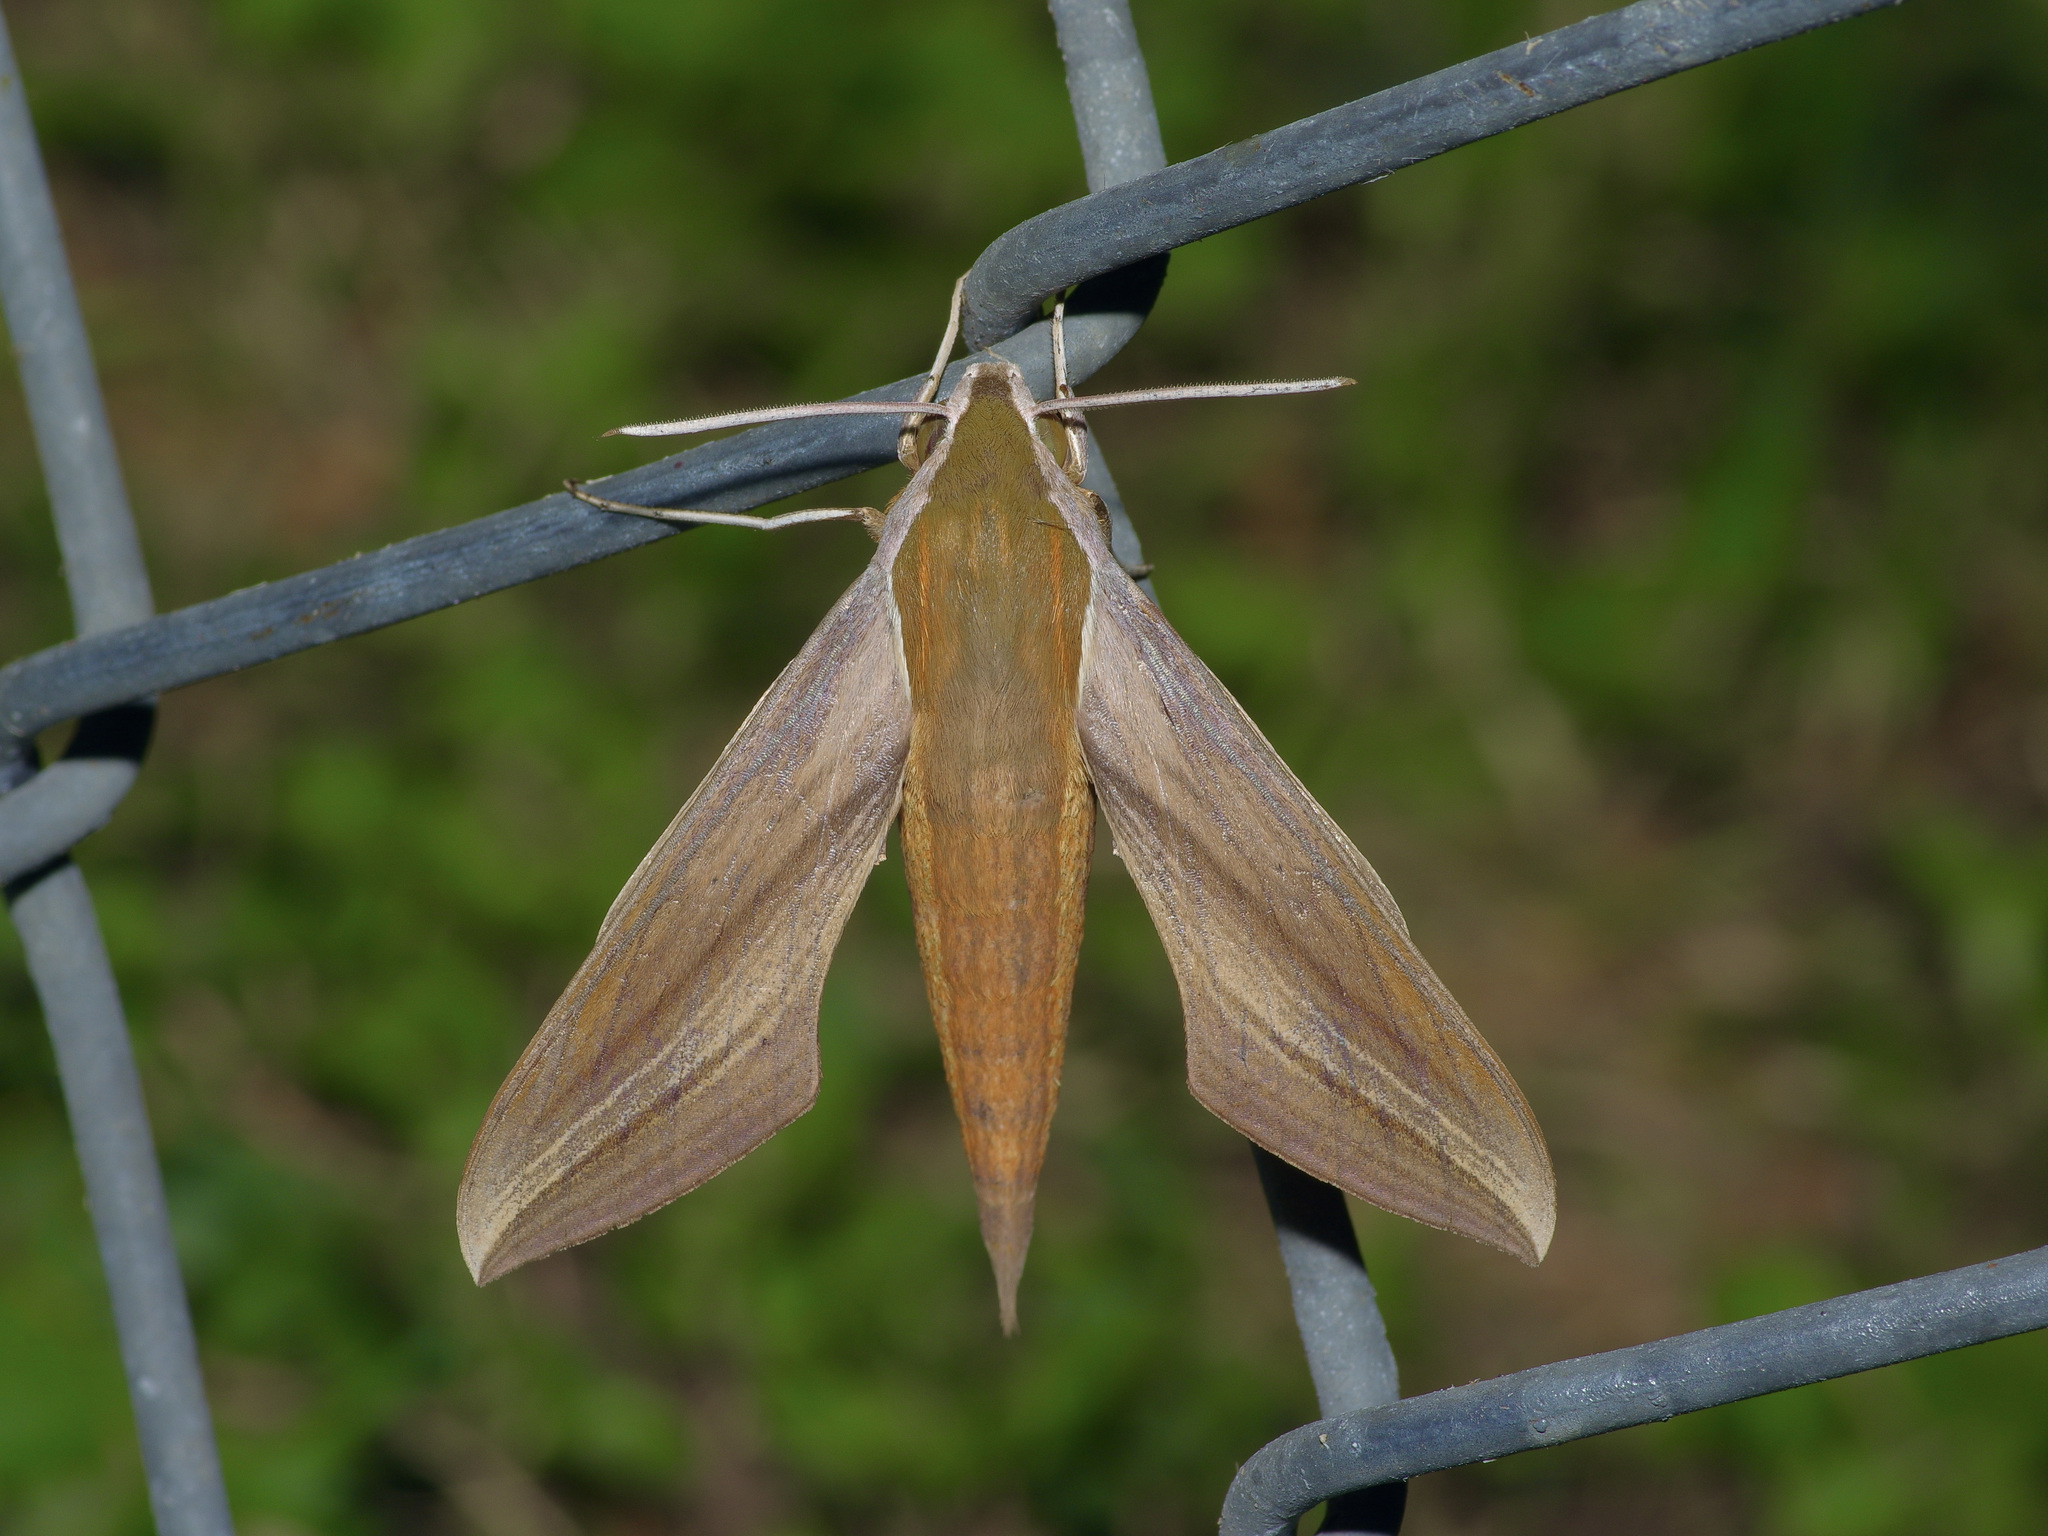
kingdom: Animalia
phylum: Arthropoda
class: Insecta
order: Lepidoptera
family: Sphingidae
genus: Xylophanes
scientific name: Xylophanes tersa
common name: Tersa sphinx
